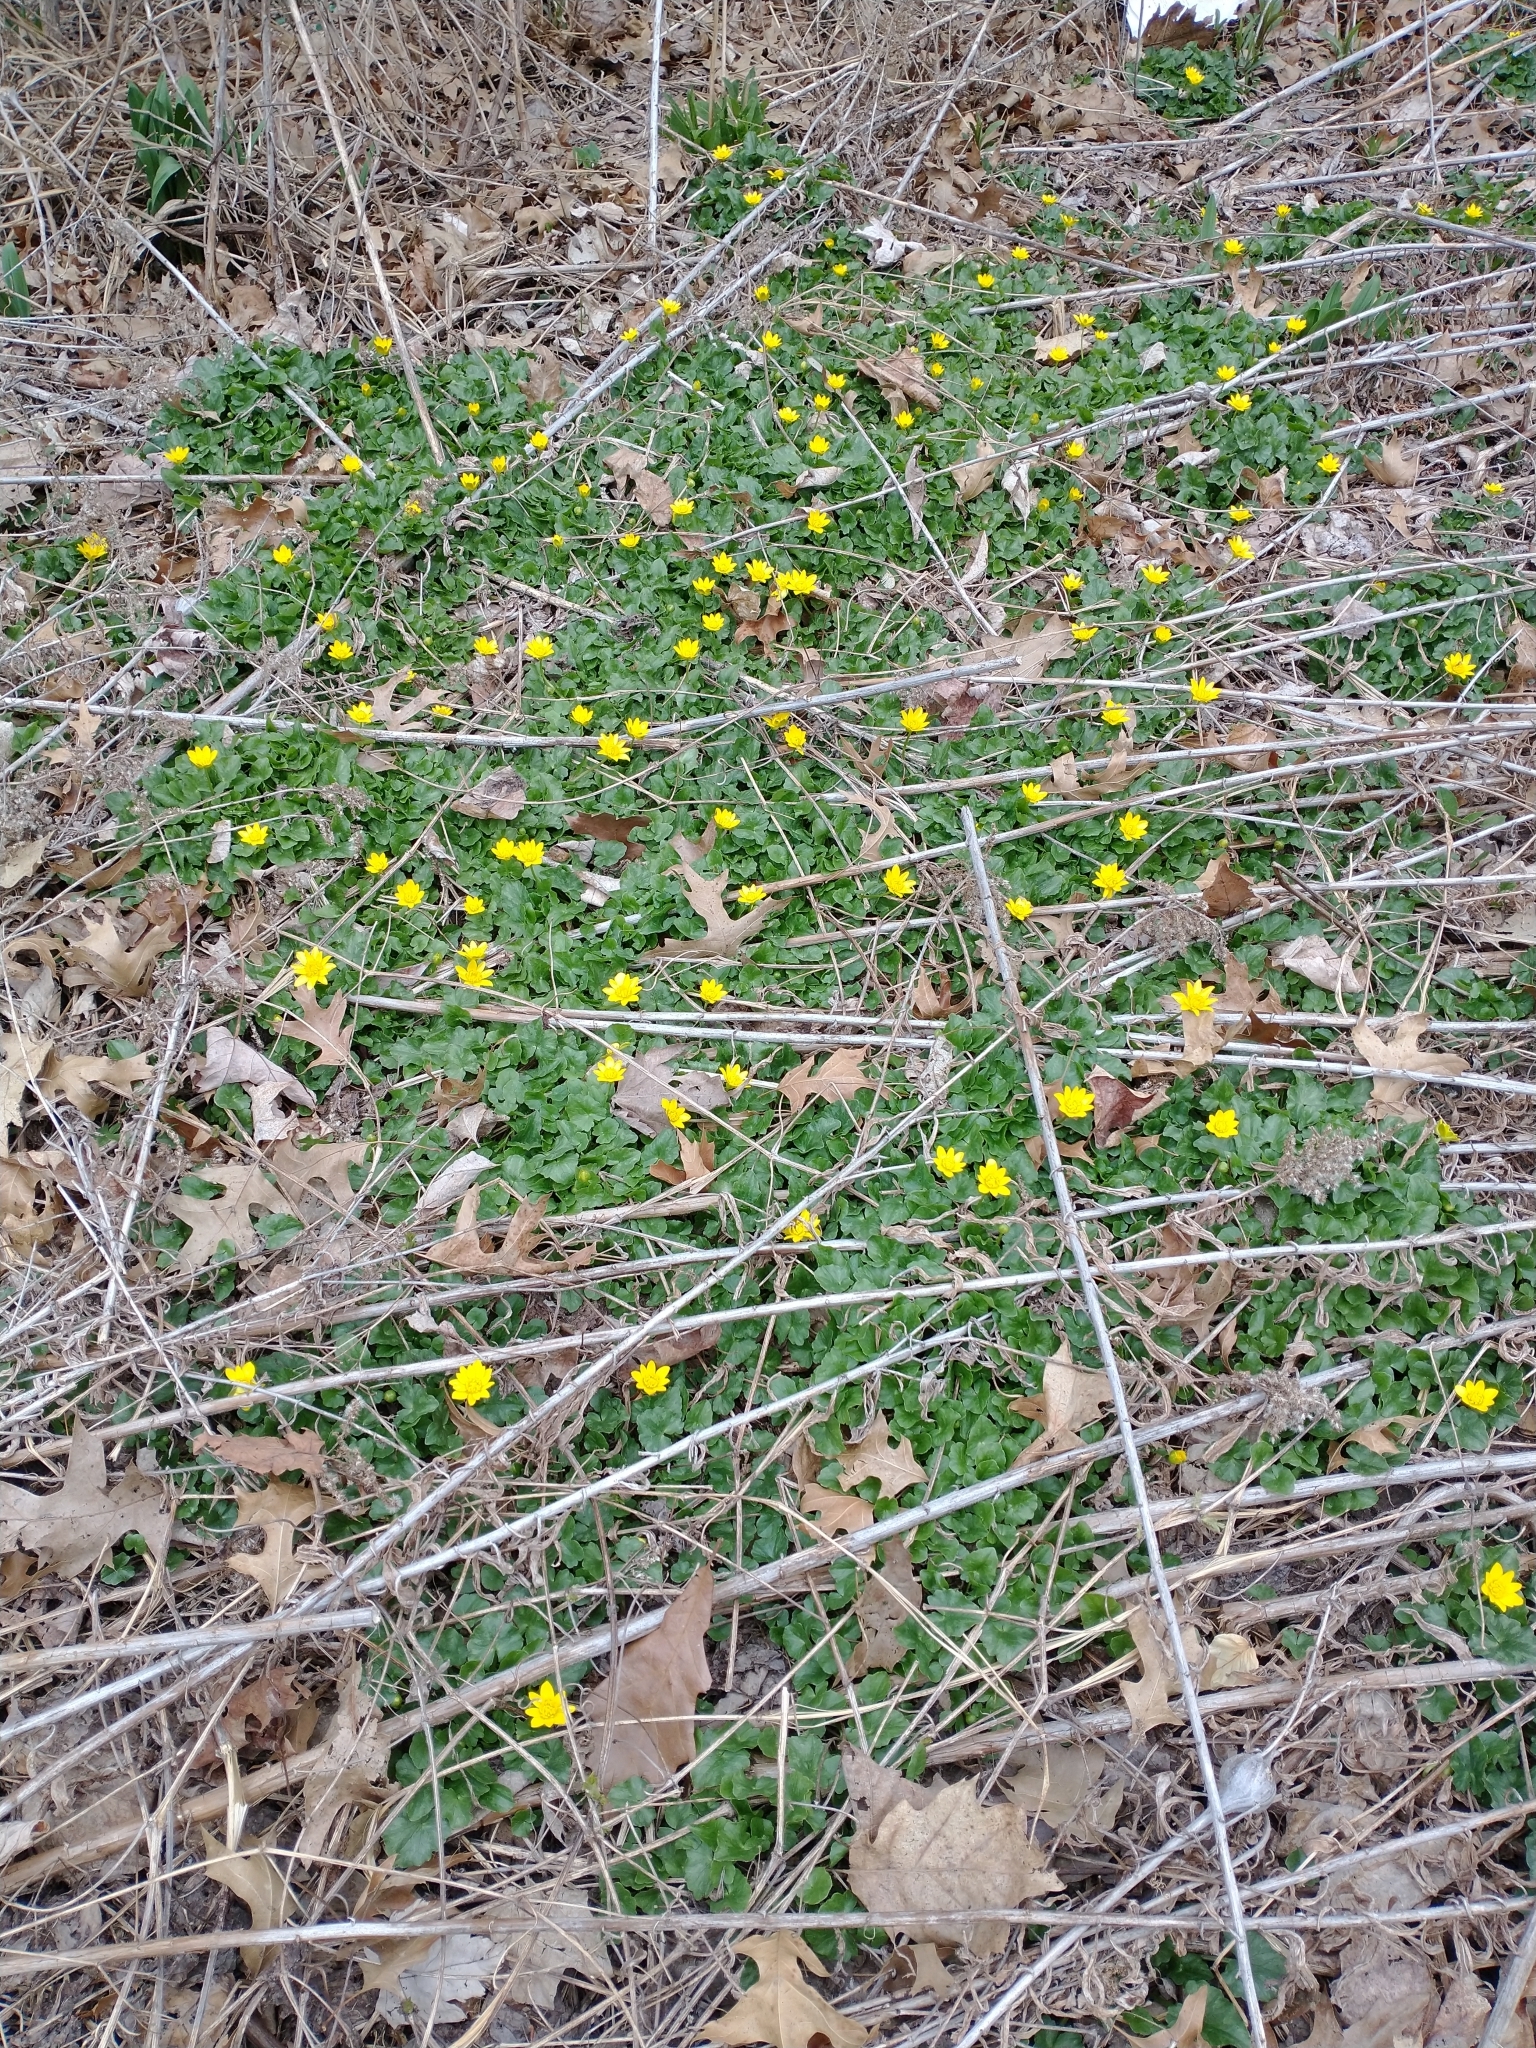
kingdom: Plantae
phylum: Tracheophyta
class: Magnoliopsida
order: Ranunculales
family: Ranunculaceae
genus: Ficaria
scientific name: Ficaria verna
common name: Lesser celandine
